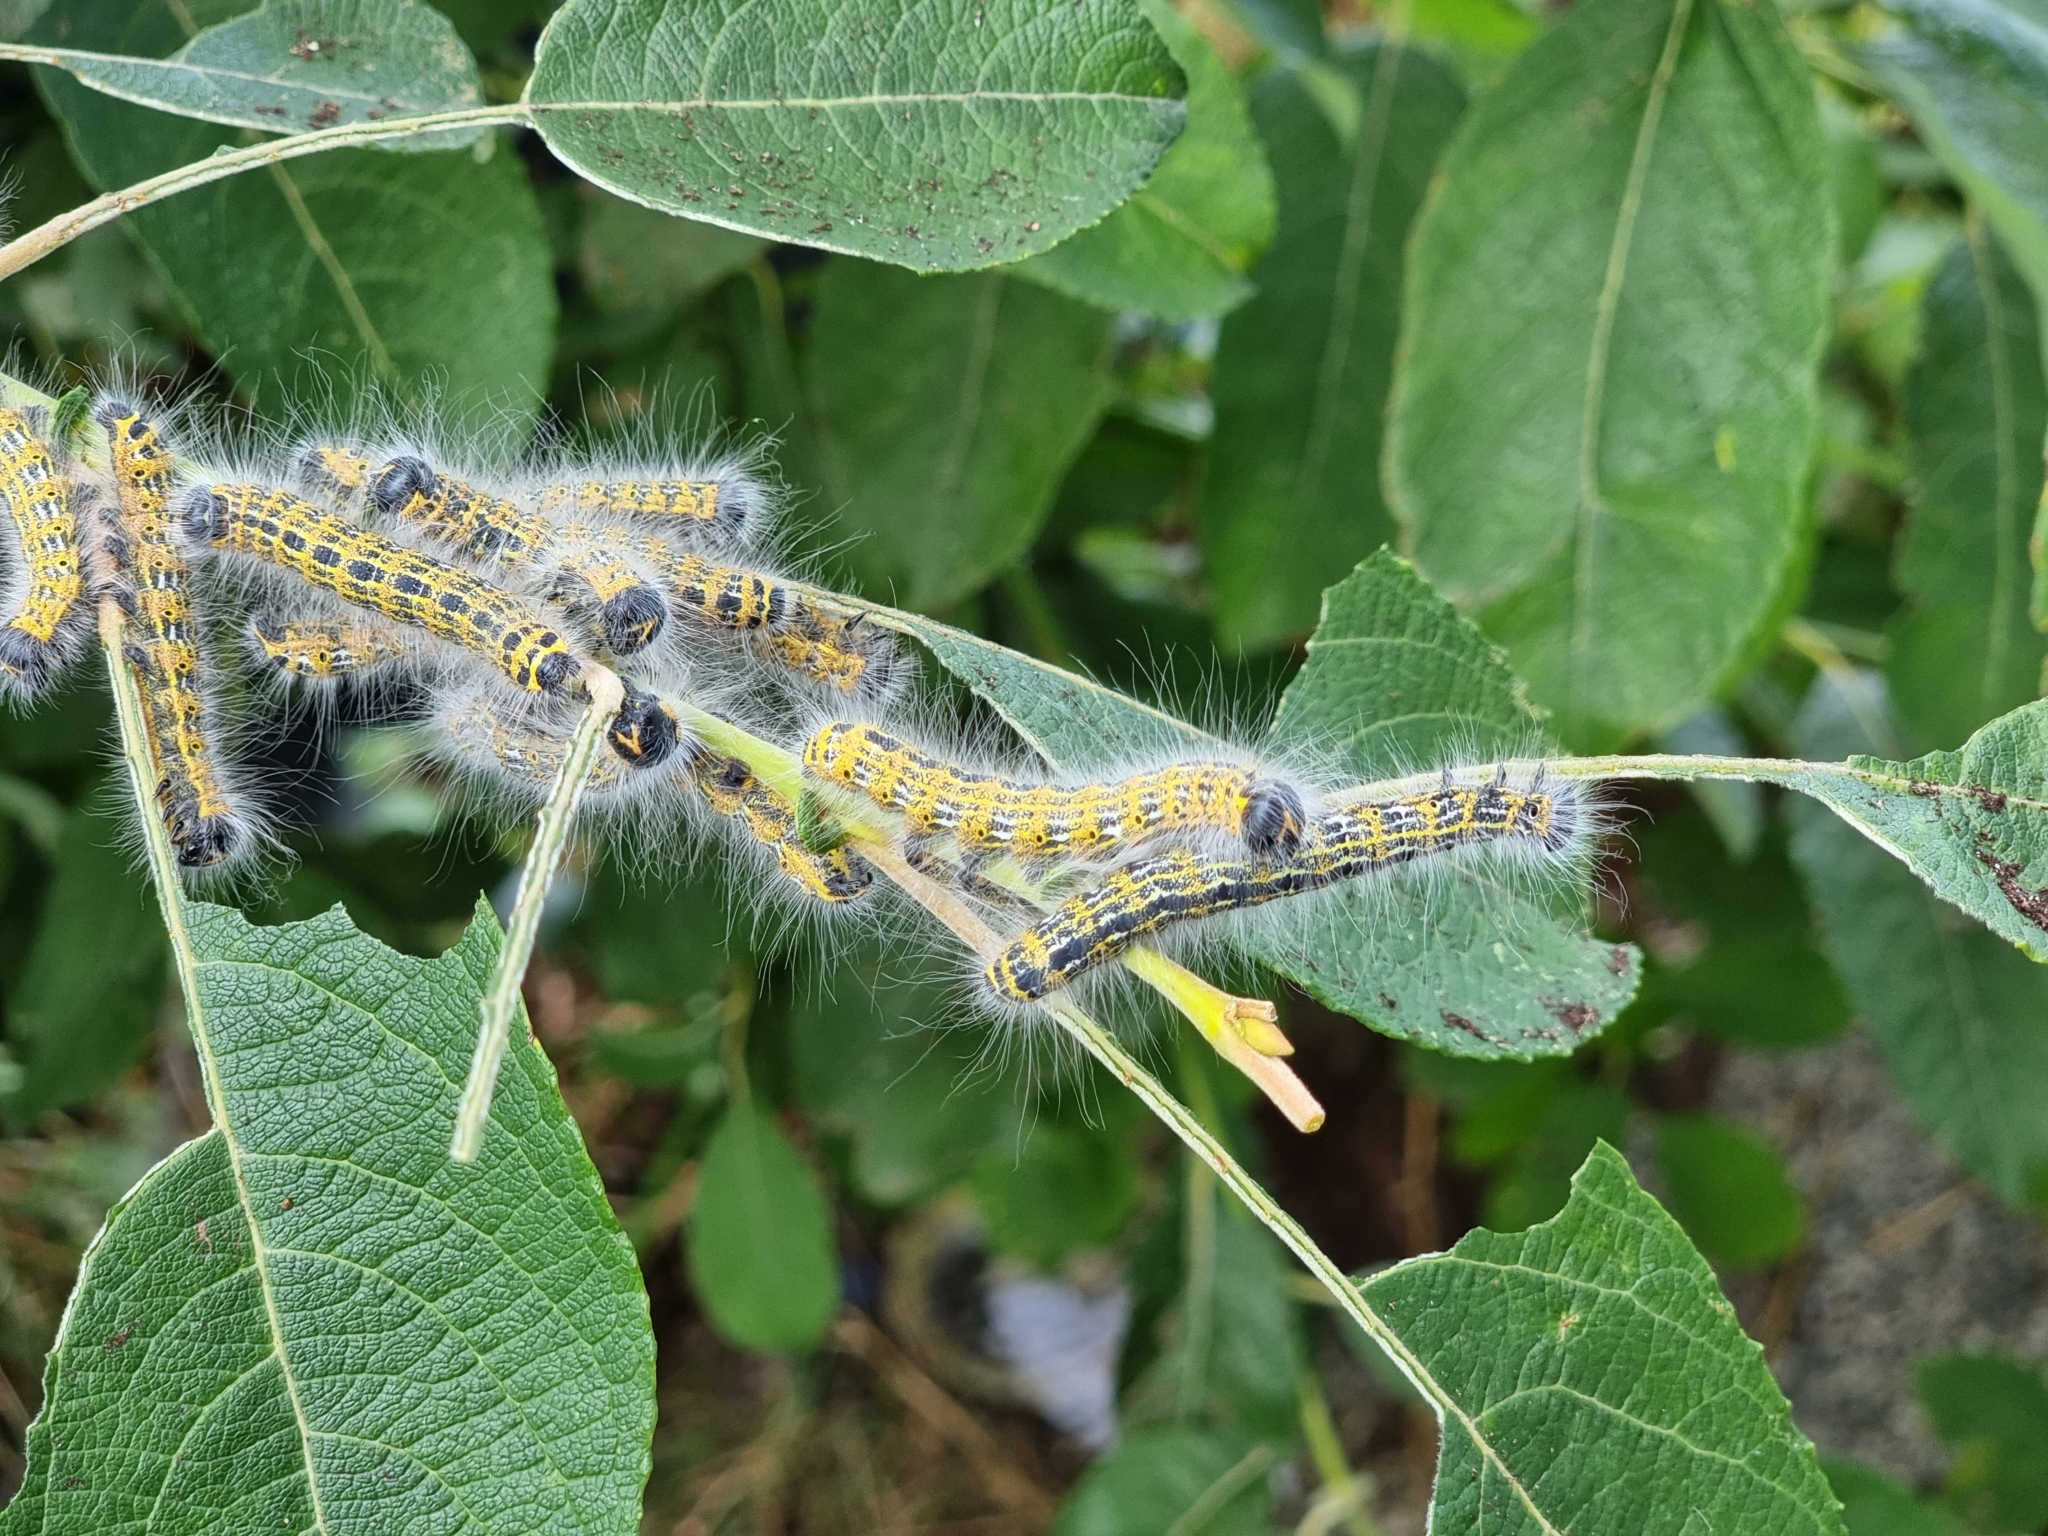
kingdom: Animalia
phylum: Arthropoda
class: Insecta
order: Lepidoptera
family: Notodontidae
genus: Phalera
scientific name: Phalera bucephala
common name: Buff-tip
